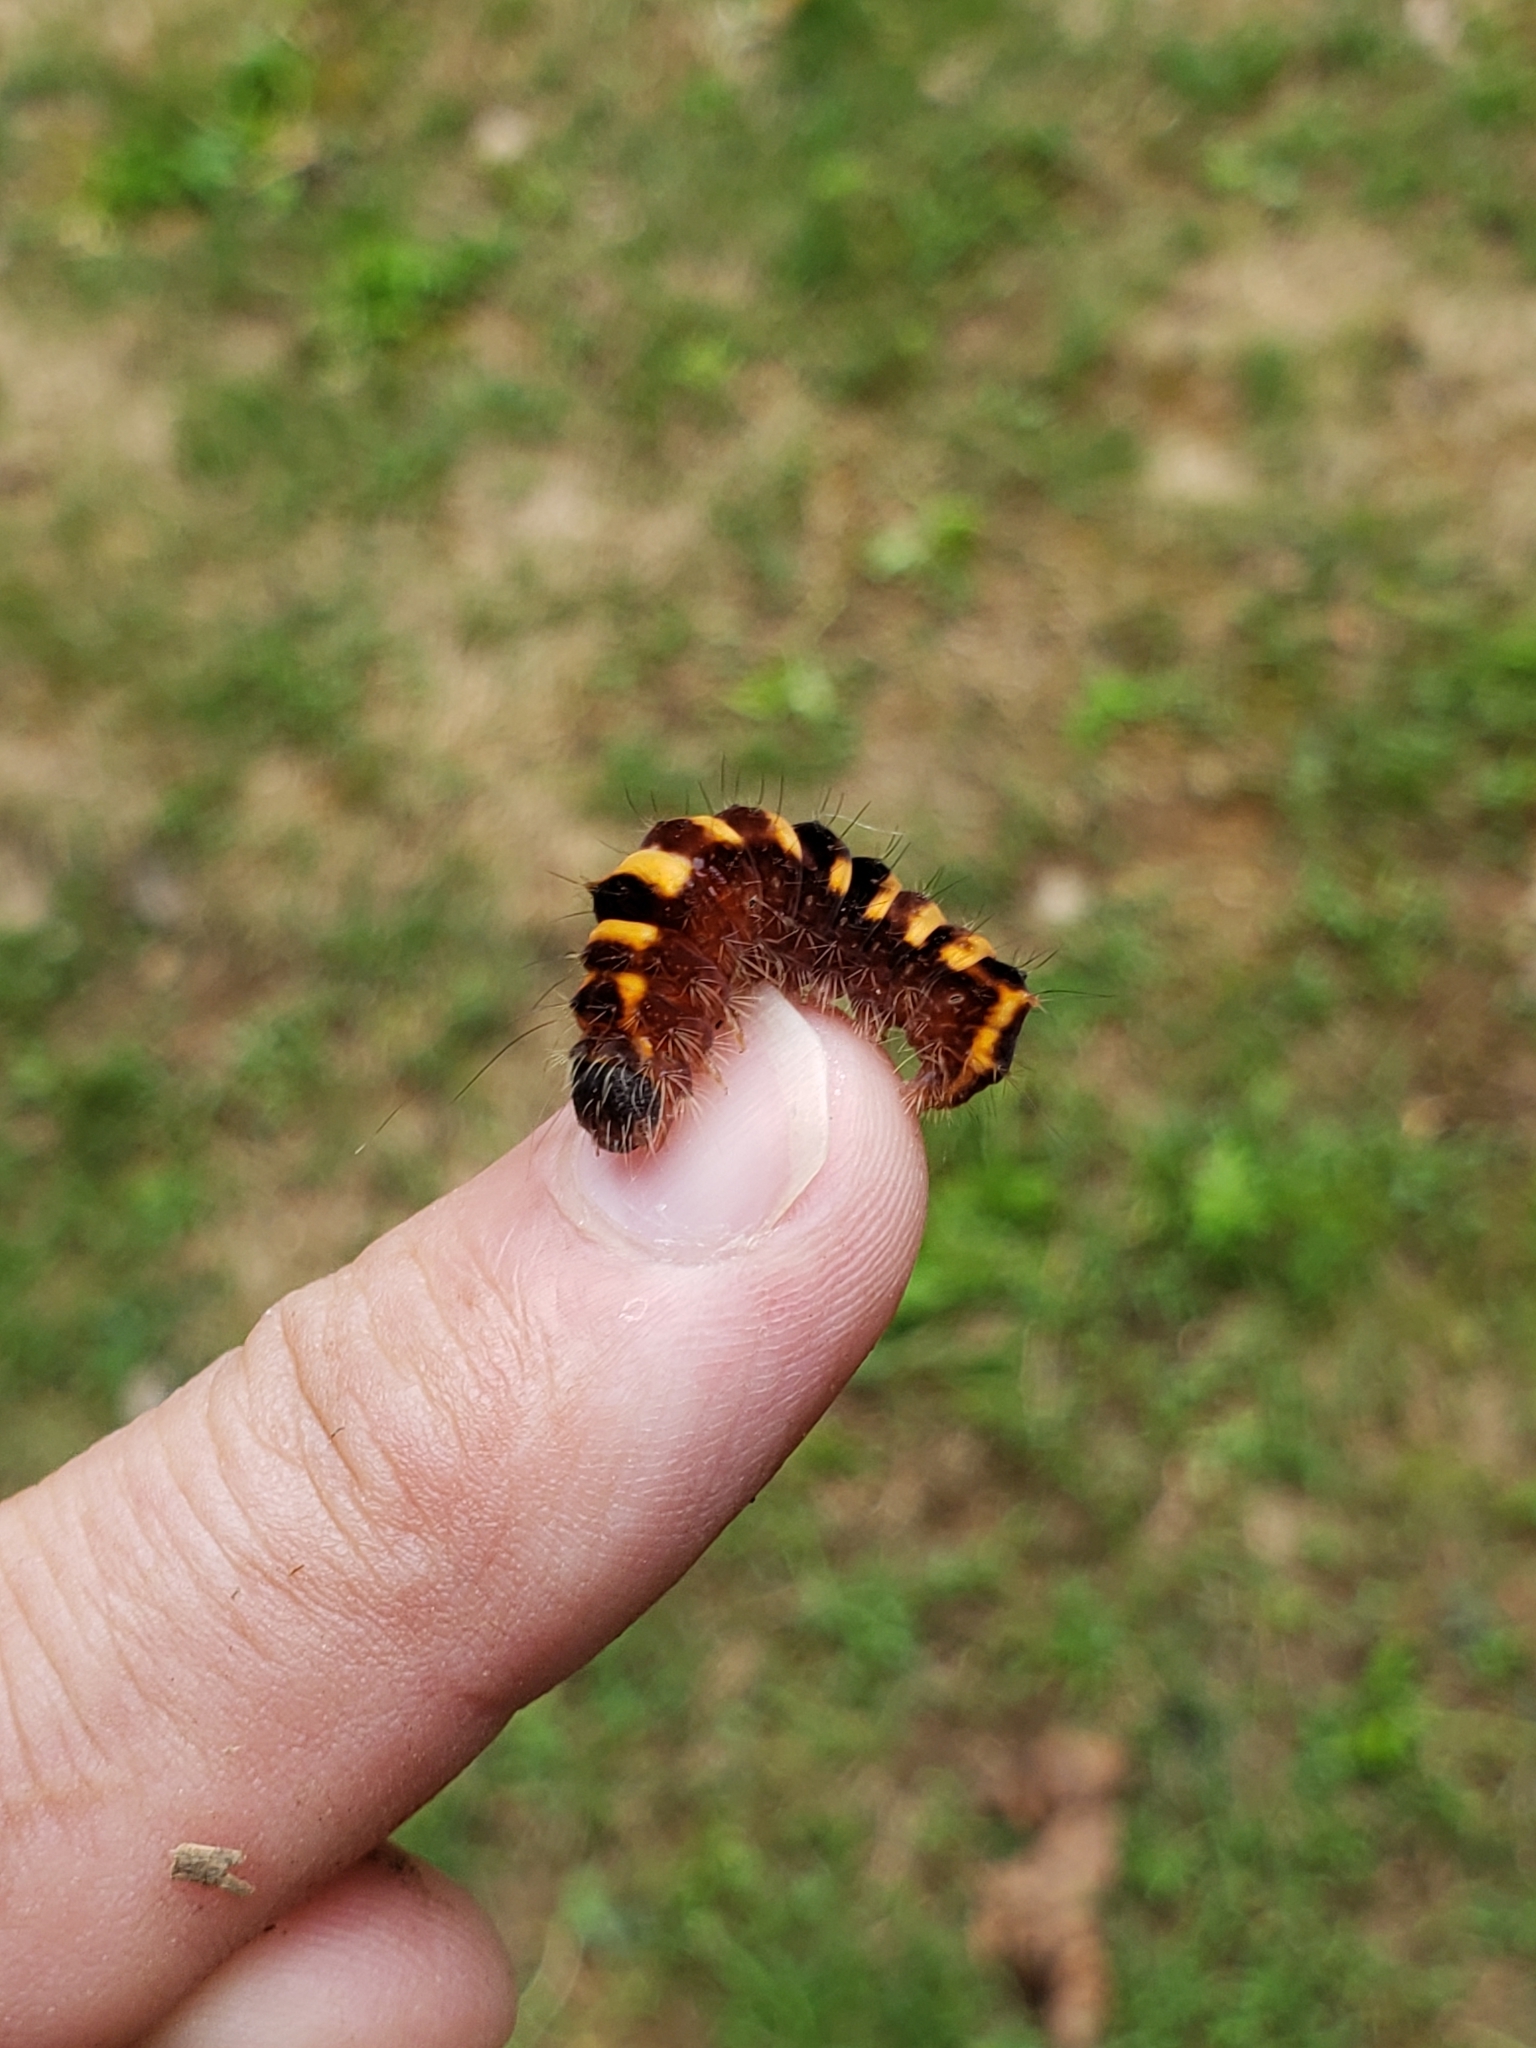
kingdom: Animalia
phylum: Arthropoda
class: Insecta
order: Lepidoptera
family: Noctuidae
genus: Acronicta
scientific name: Acronicta hamamelis
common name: Witch hazel dagger
